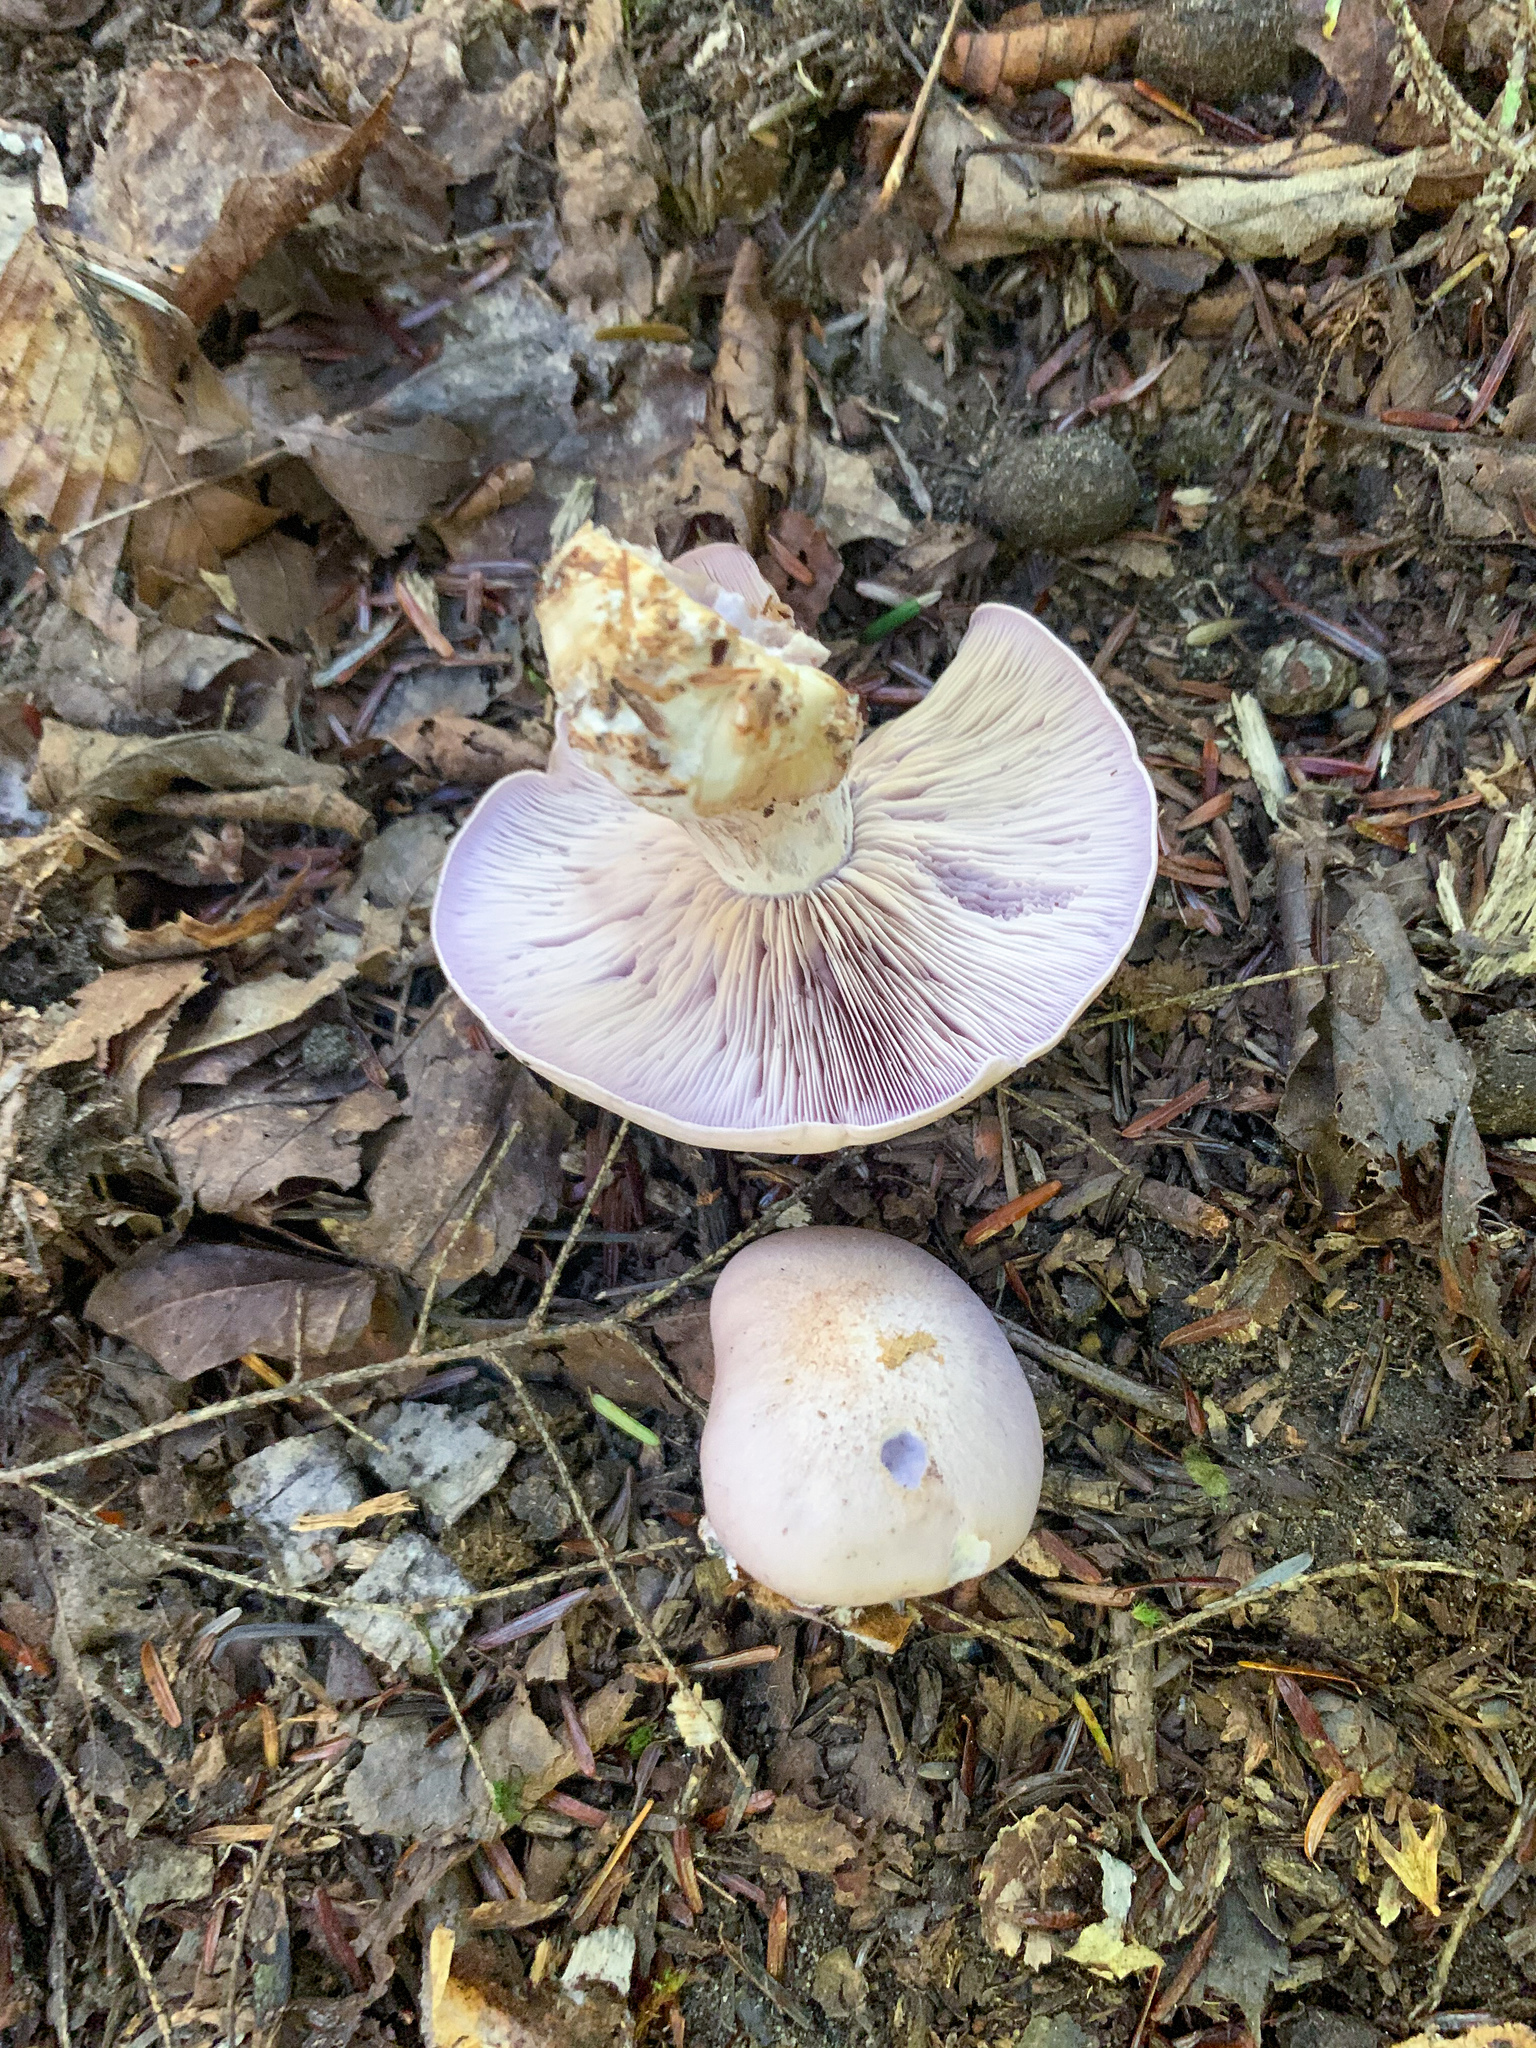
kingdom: Fungi
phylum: Basidiomycota
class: Agaricomycetes
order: Agaricales
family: Tricholomataceae
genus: Collybia
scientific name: Collybia
